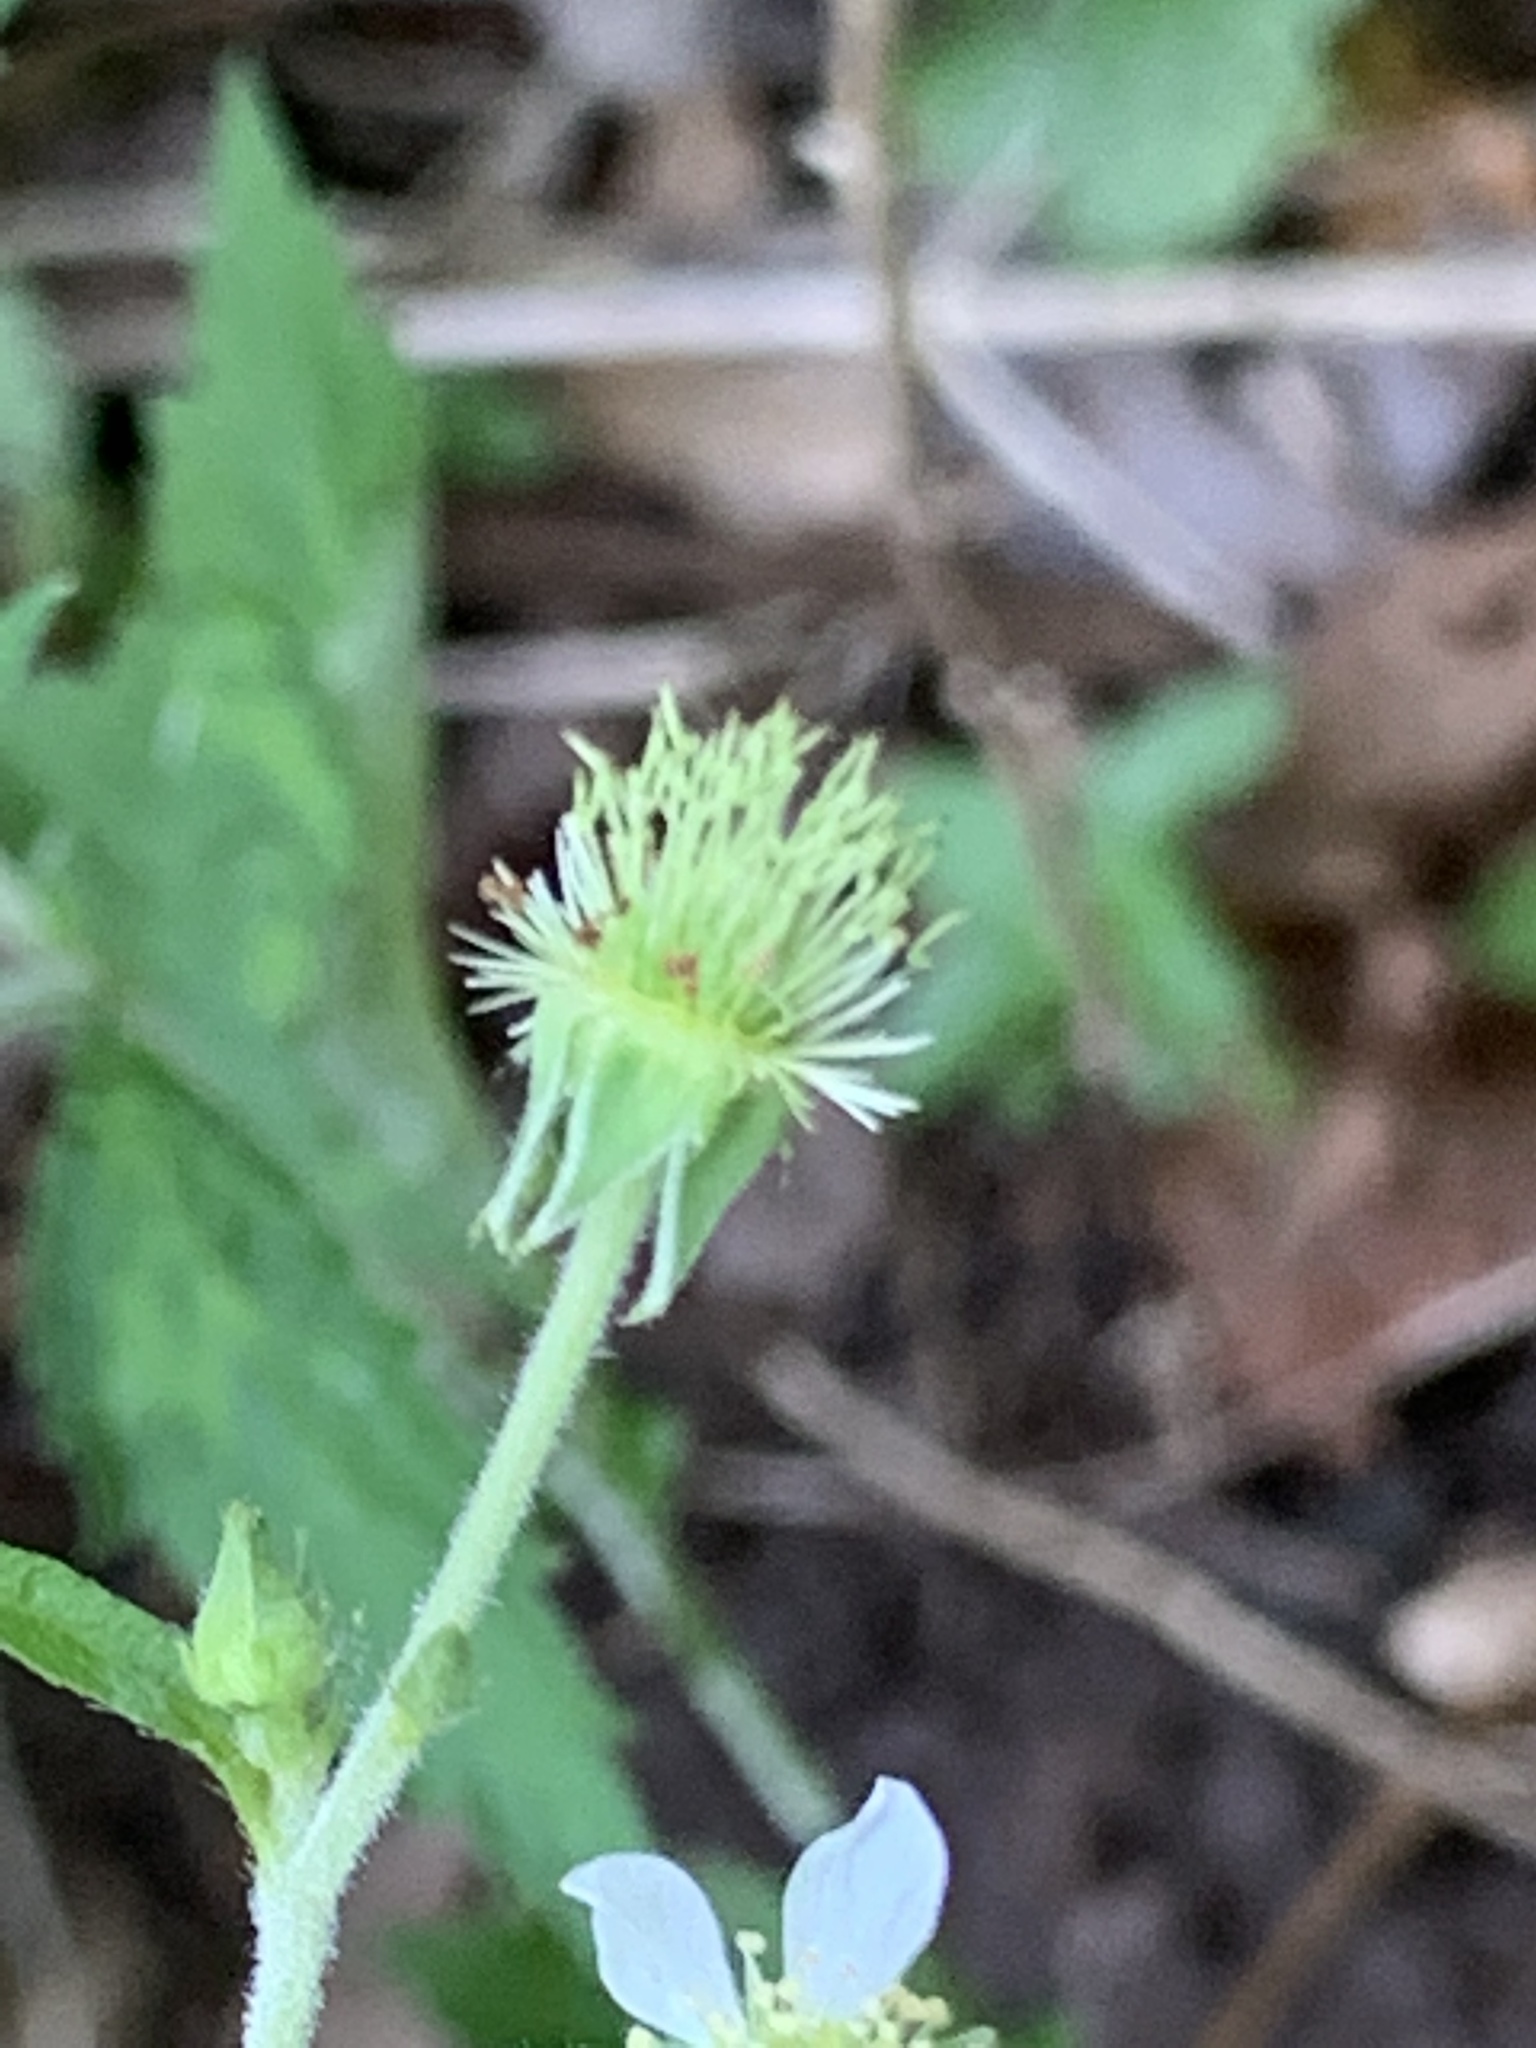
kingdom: Plantae
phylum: Tracheophyta
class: Magnoliopsida
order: Rosales
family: Rosaceae
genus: Geum
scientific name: Geum canadense
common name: White avens
